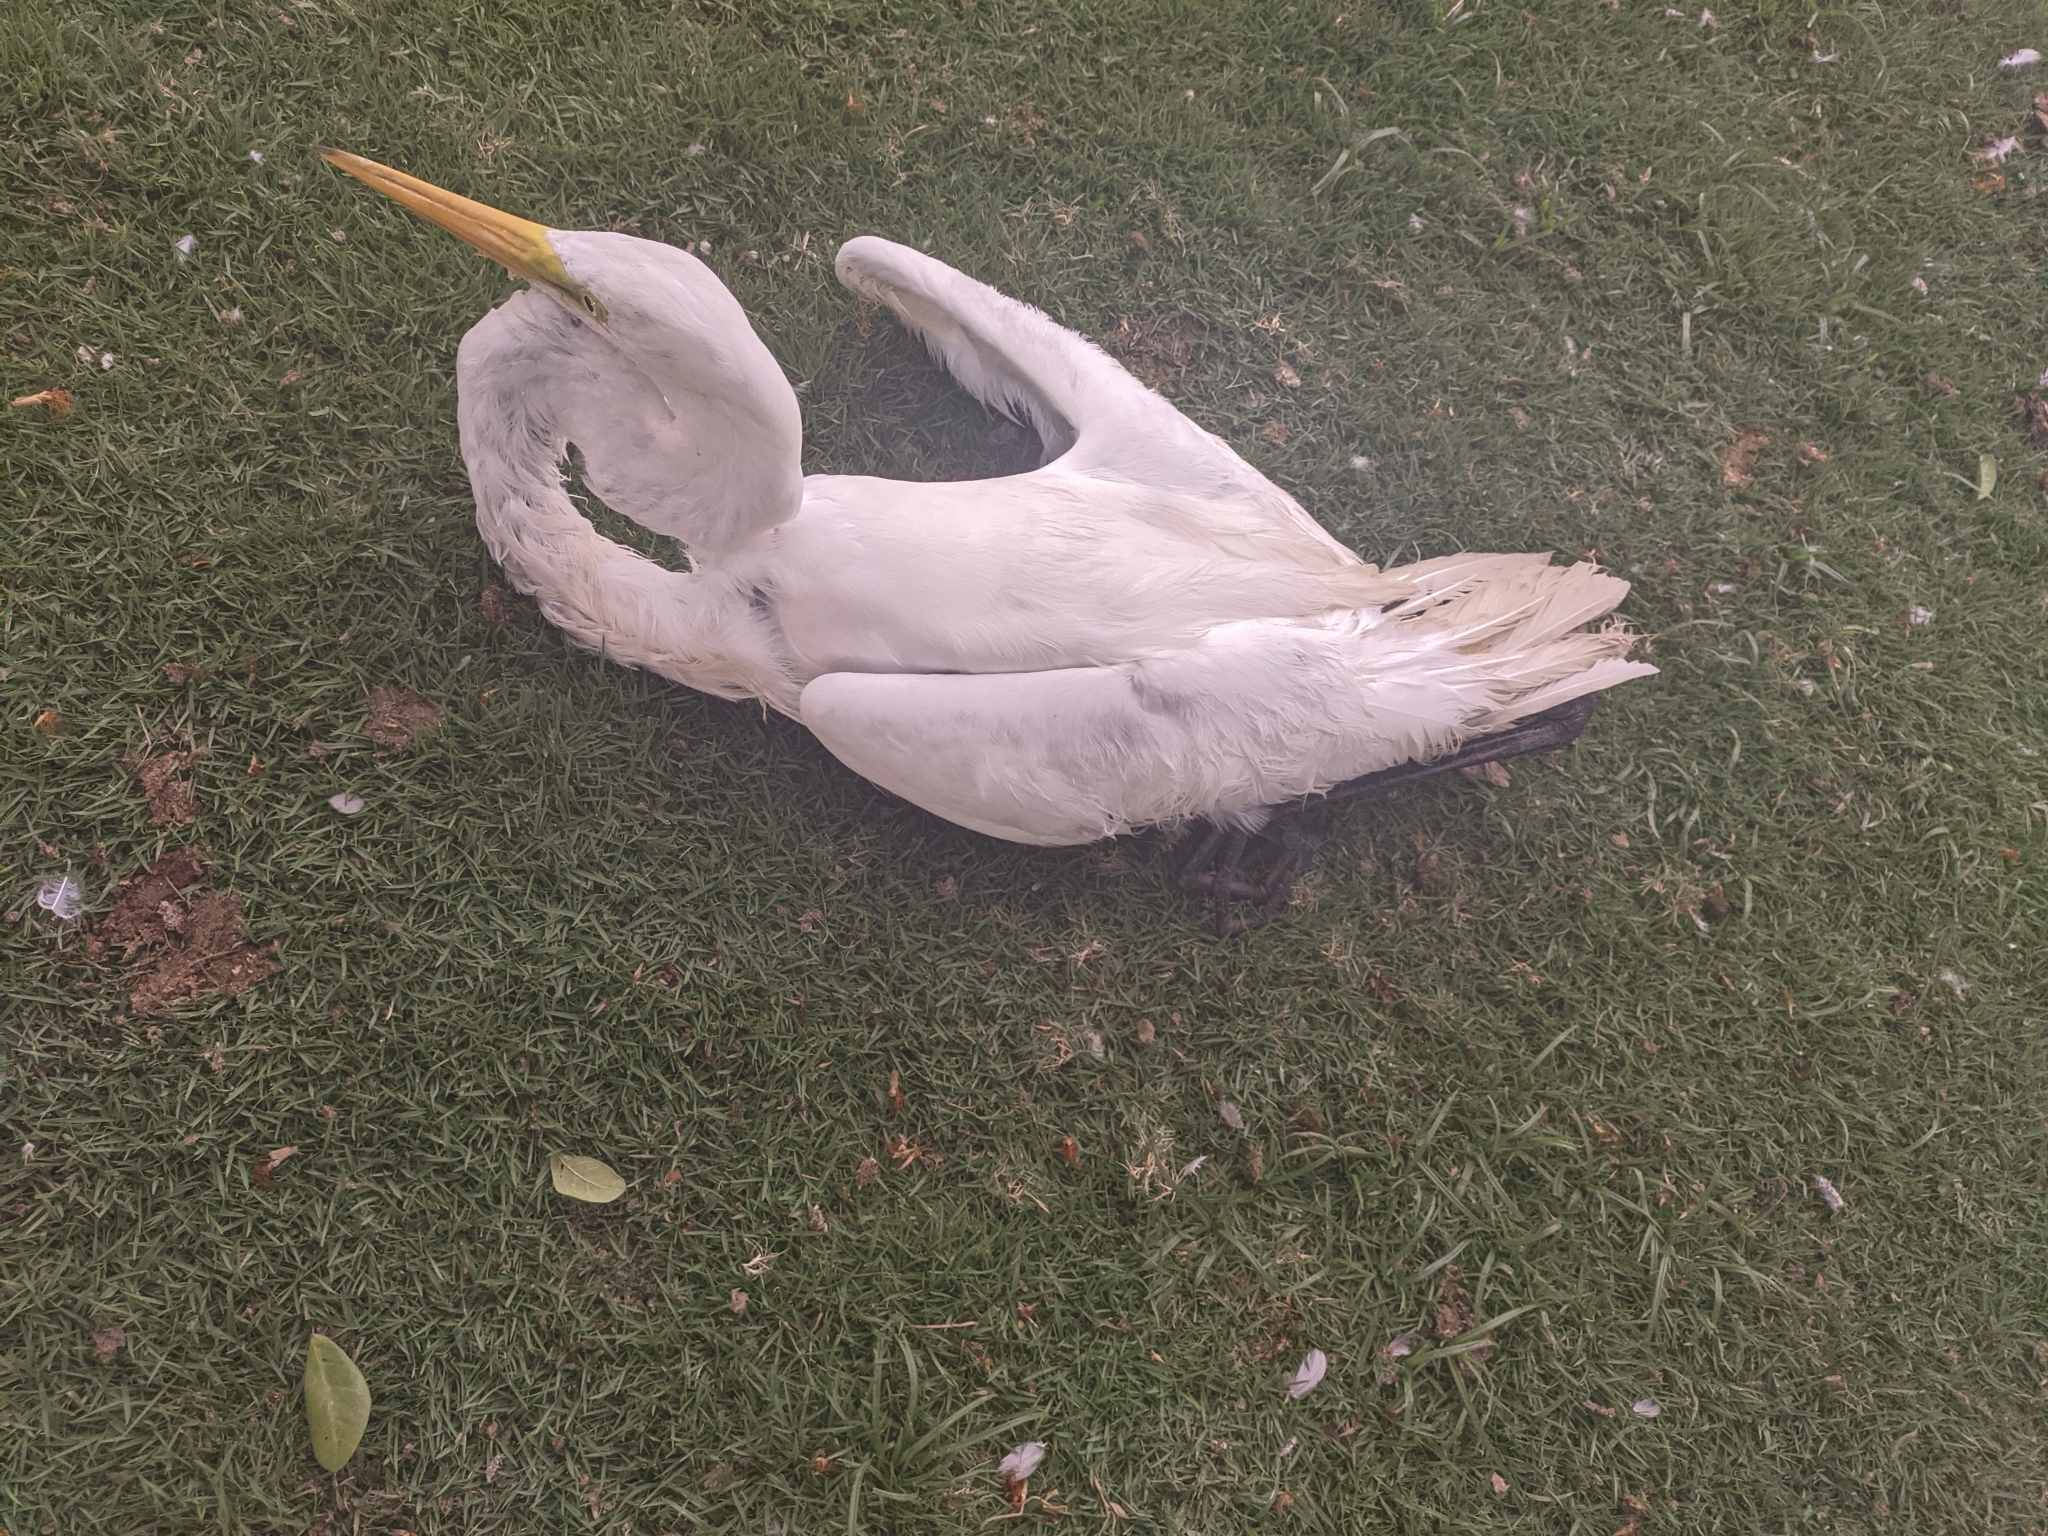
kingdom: Animalia
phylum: Chordata
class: Aves
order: Pelecaniformes
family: Ardeidae
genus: Ardea
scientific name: Ardea alba
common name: Great egret
